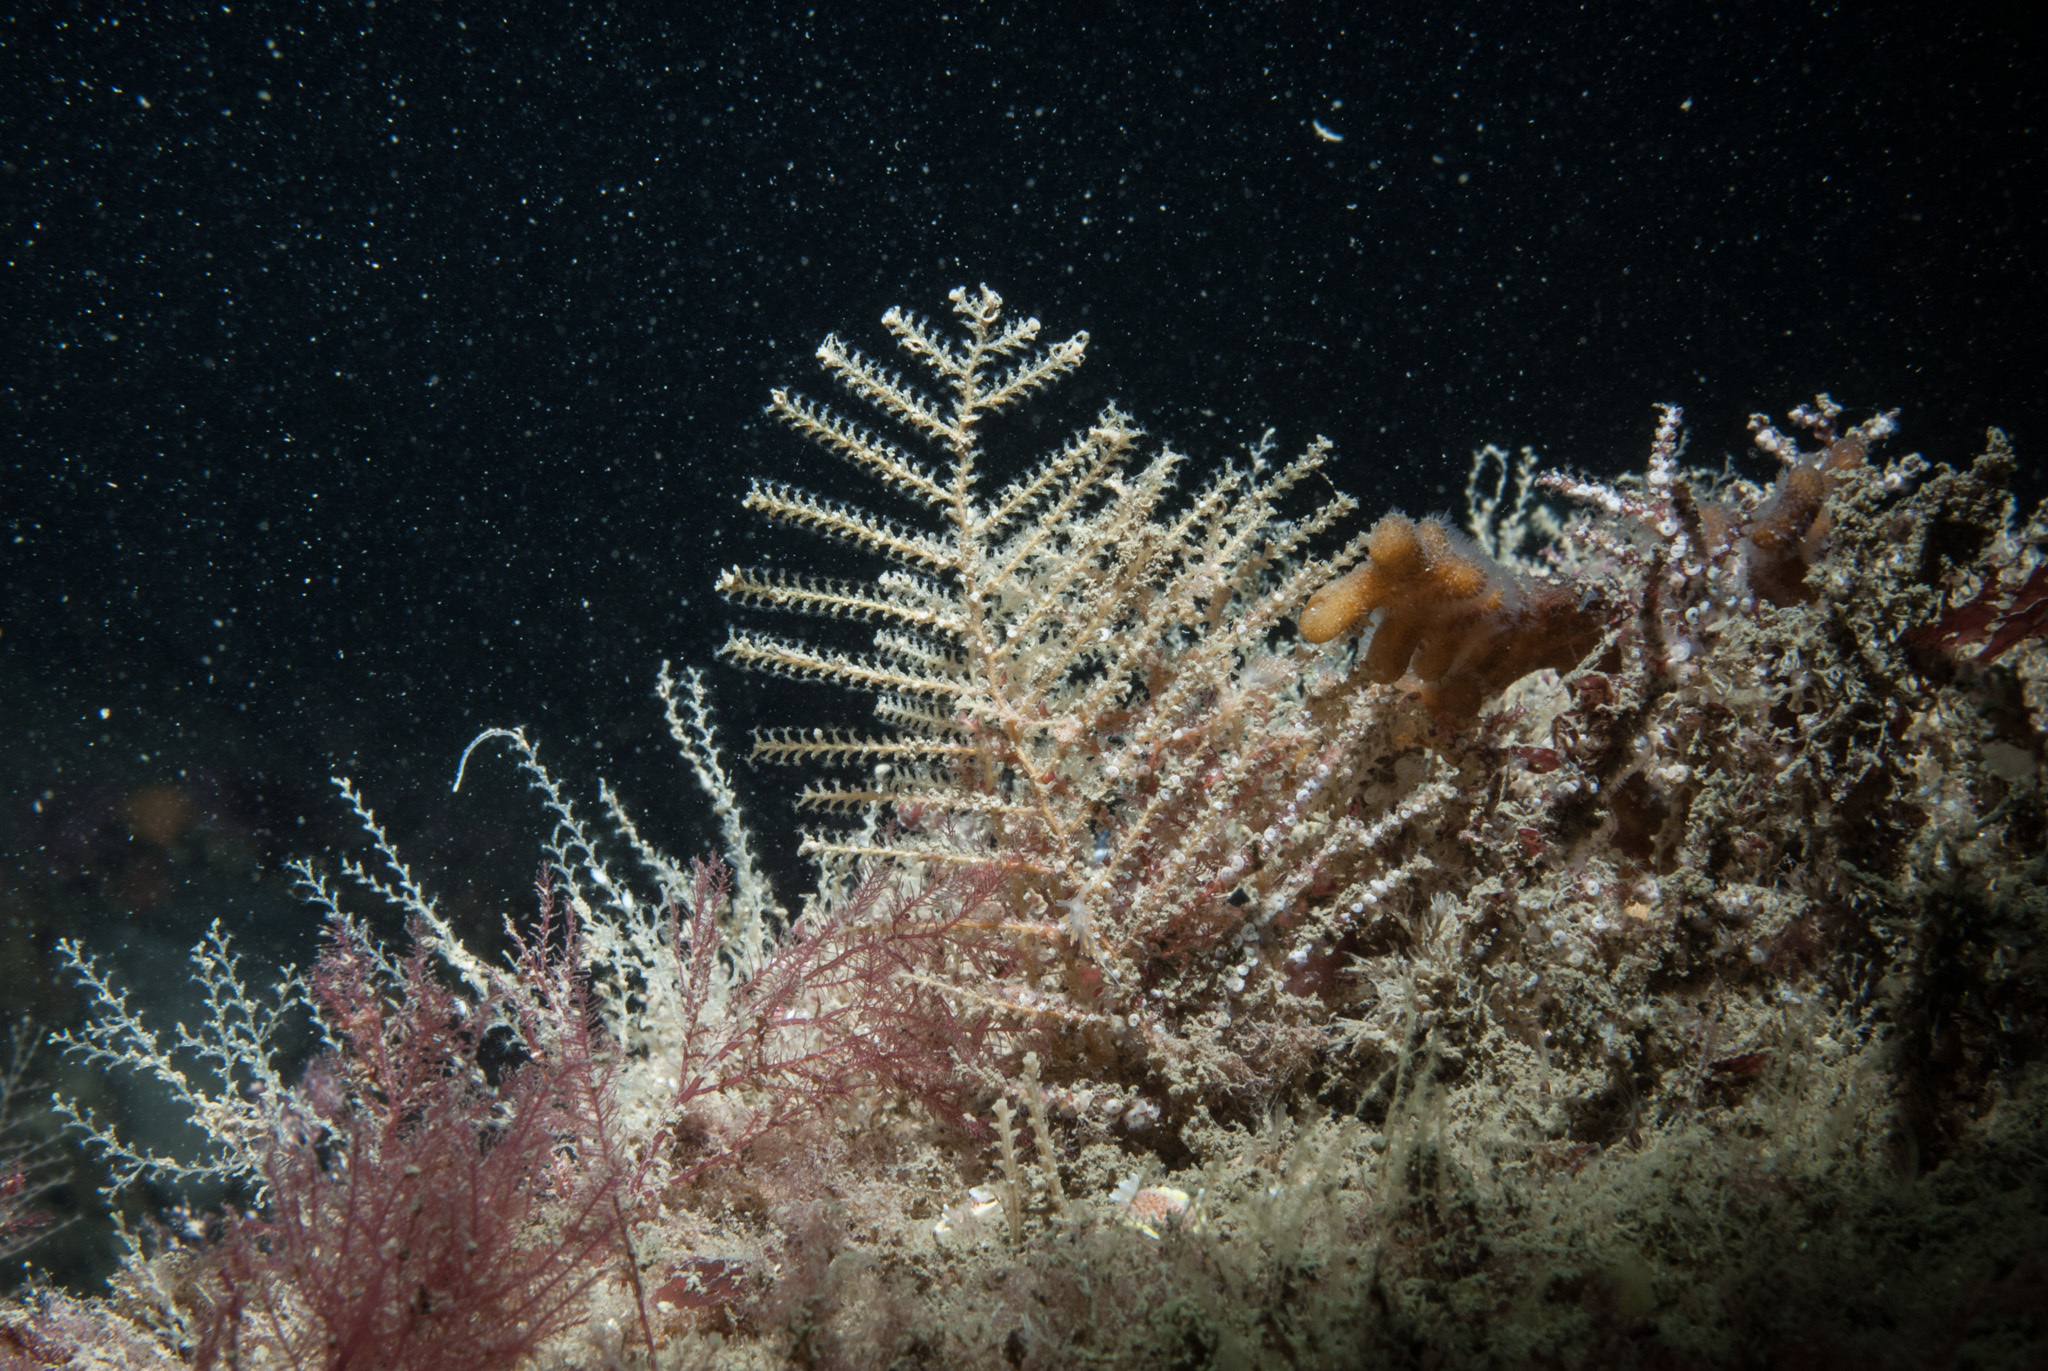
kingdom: Animalia
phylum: Cnidaria
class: Hydrozoa
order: Leptothecata
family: Sertulariidae
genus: Abietinaria
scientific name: Abietinaria abietina
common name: Sea fir
